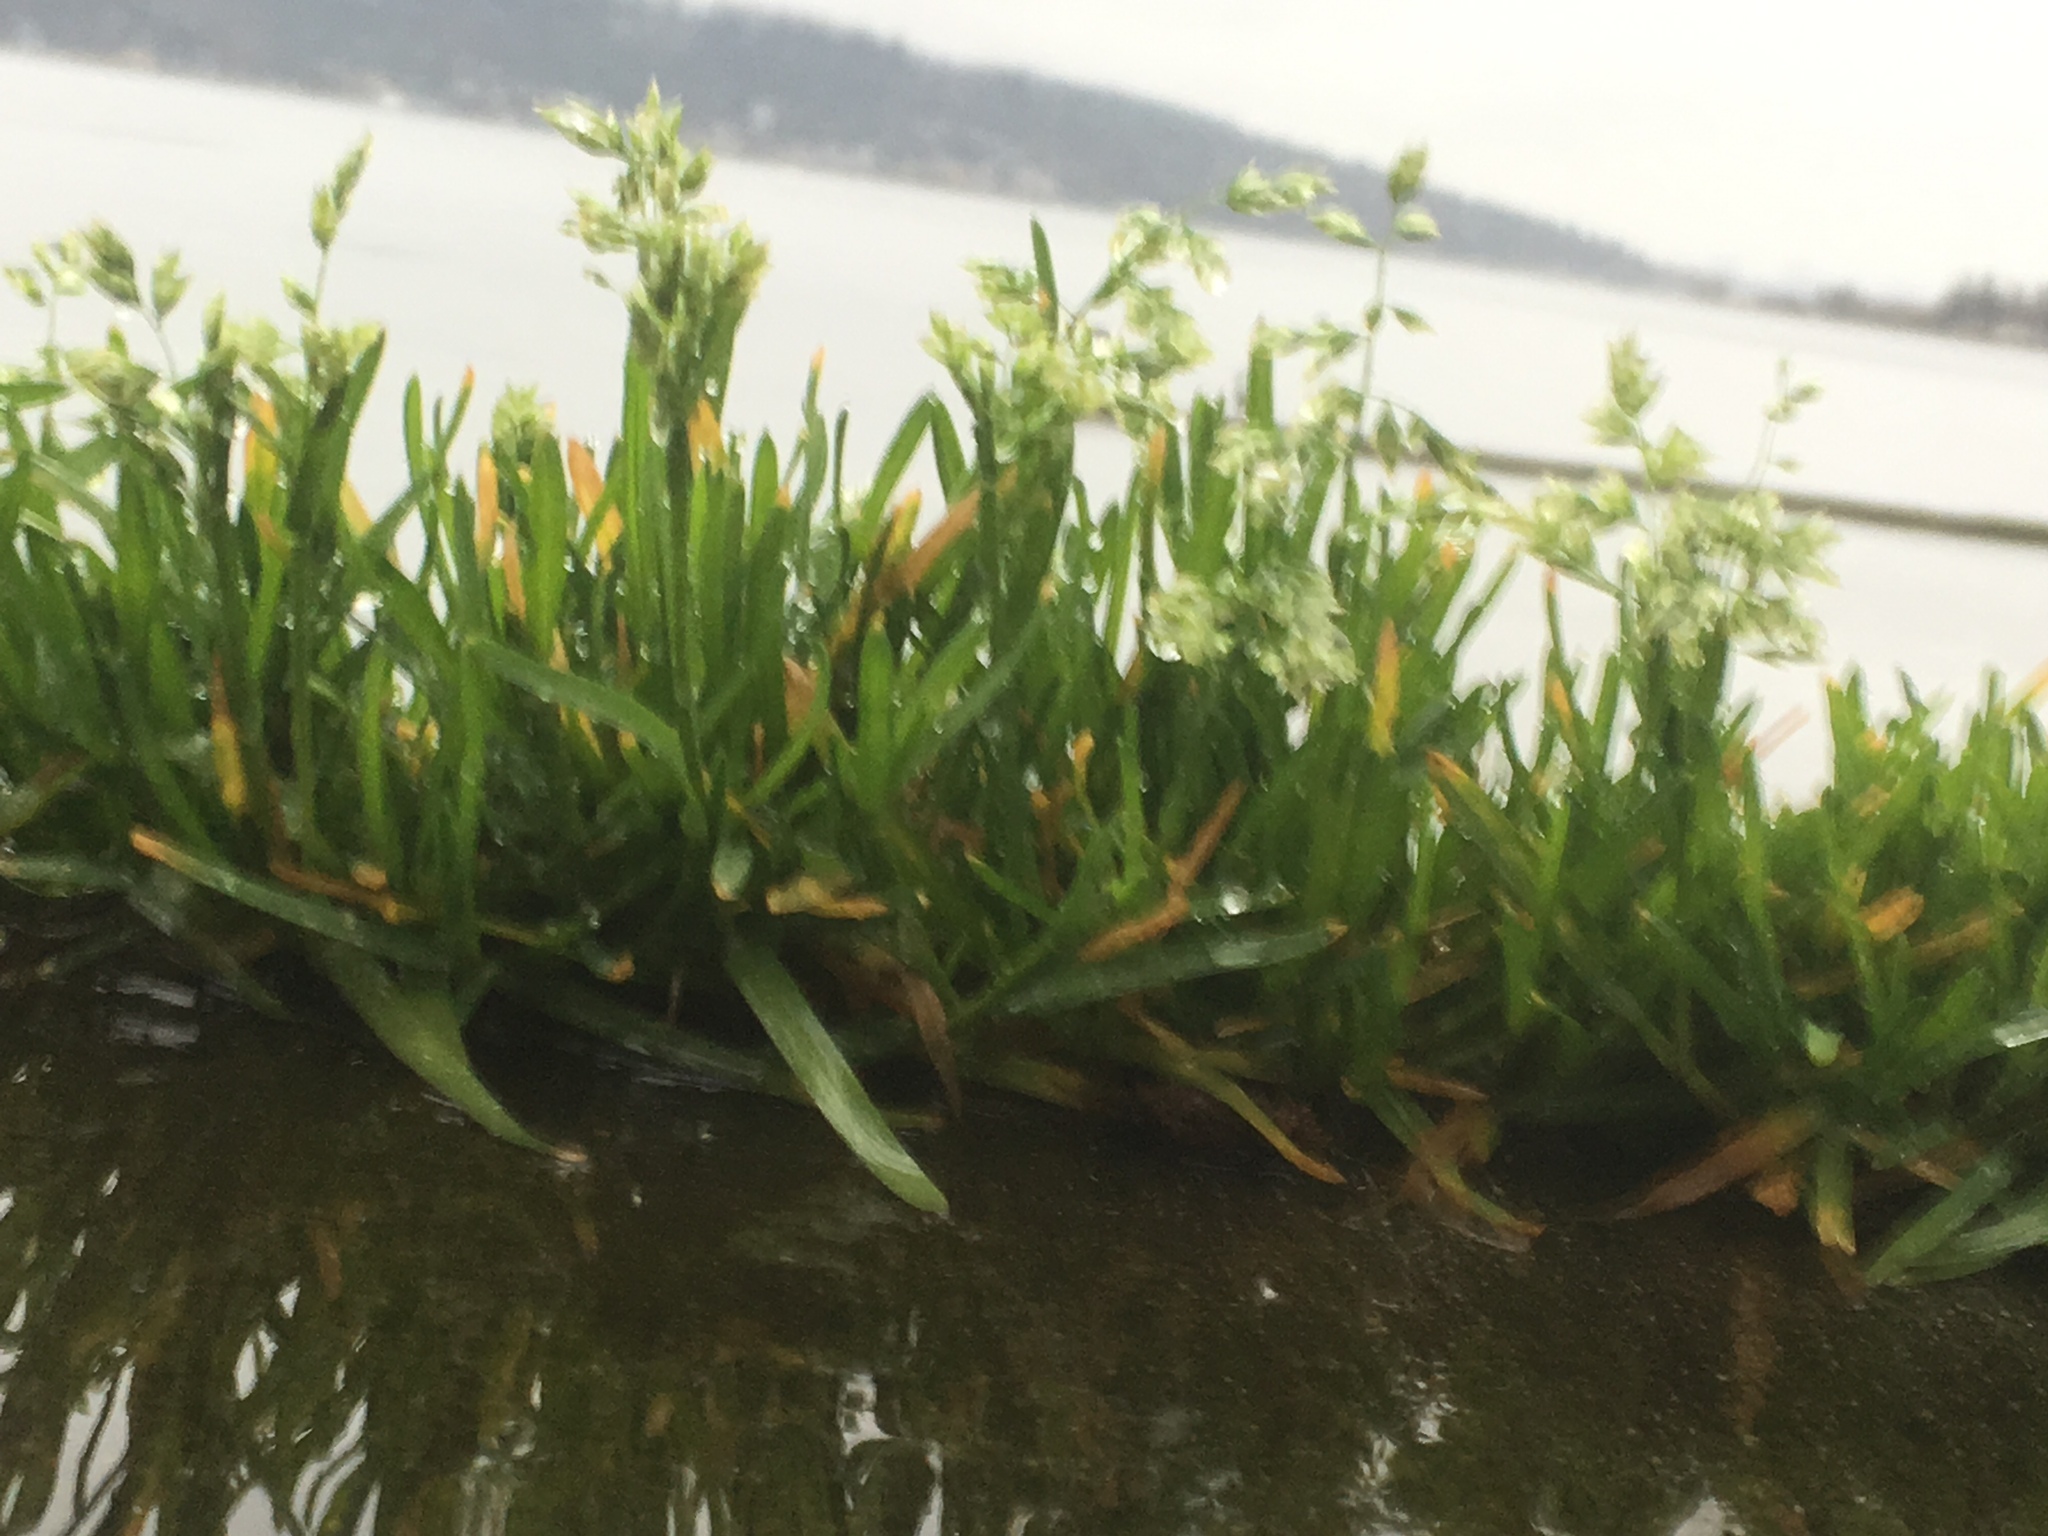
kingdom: Plantae
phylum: Tracheophyta
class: Liliopsida
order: Poales
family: Poaceae
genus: Poa
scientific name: Poa annua
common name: Annual bluegrass
